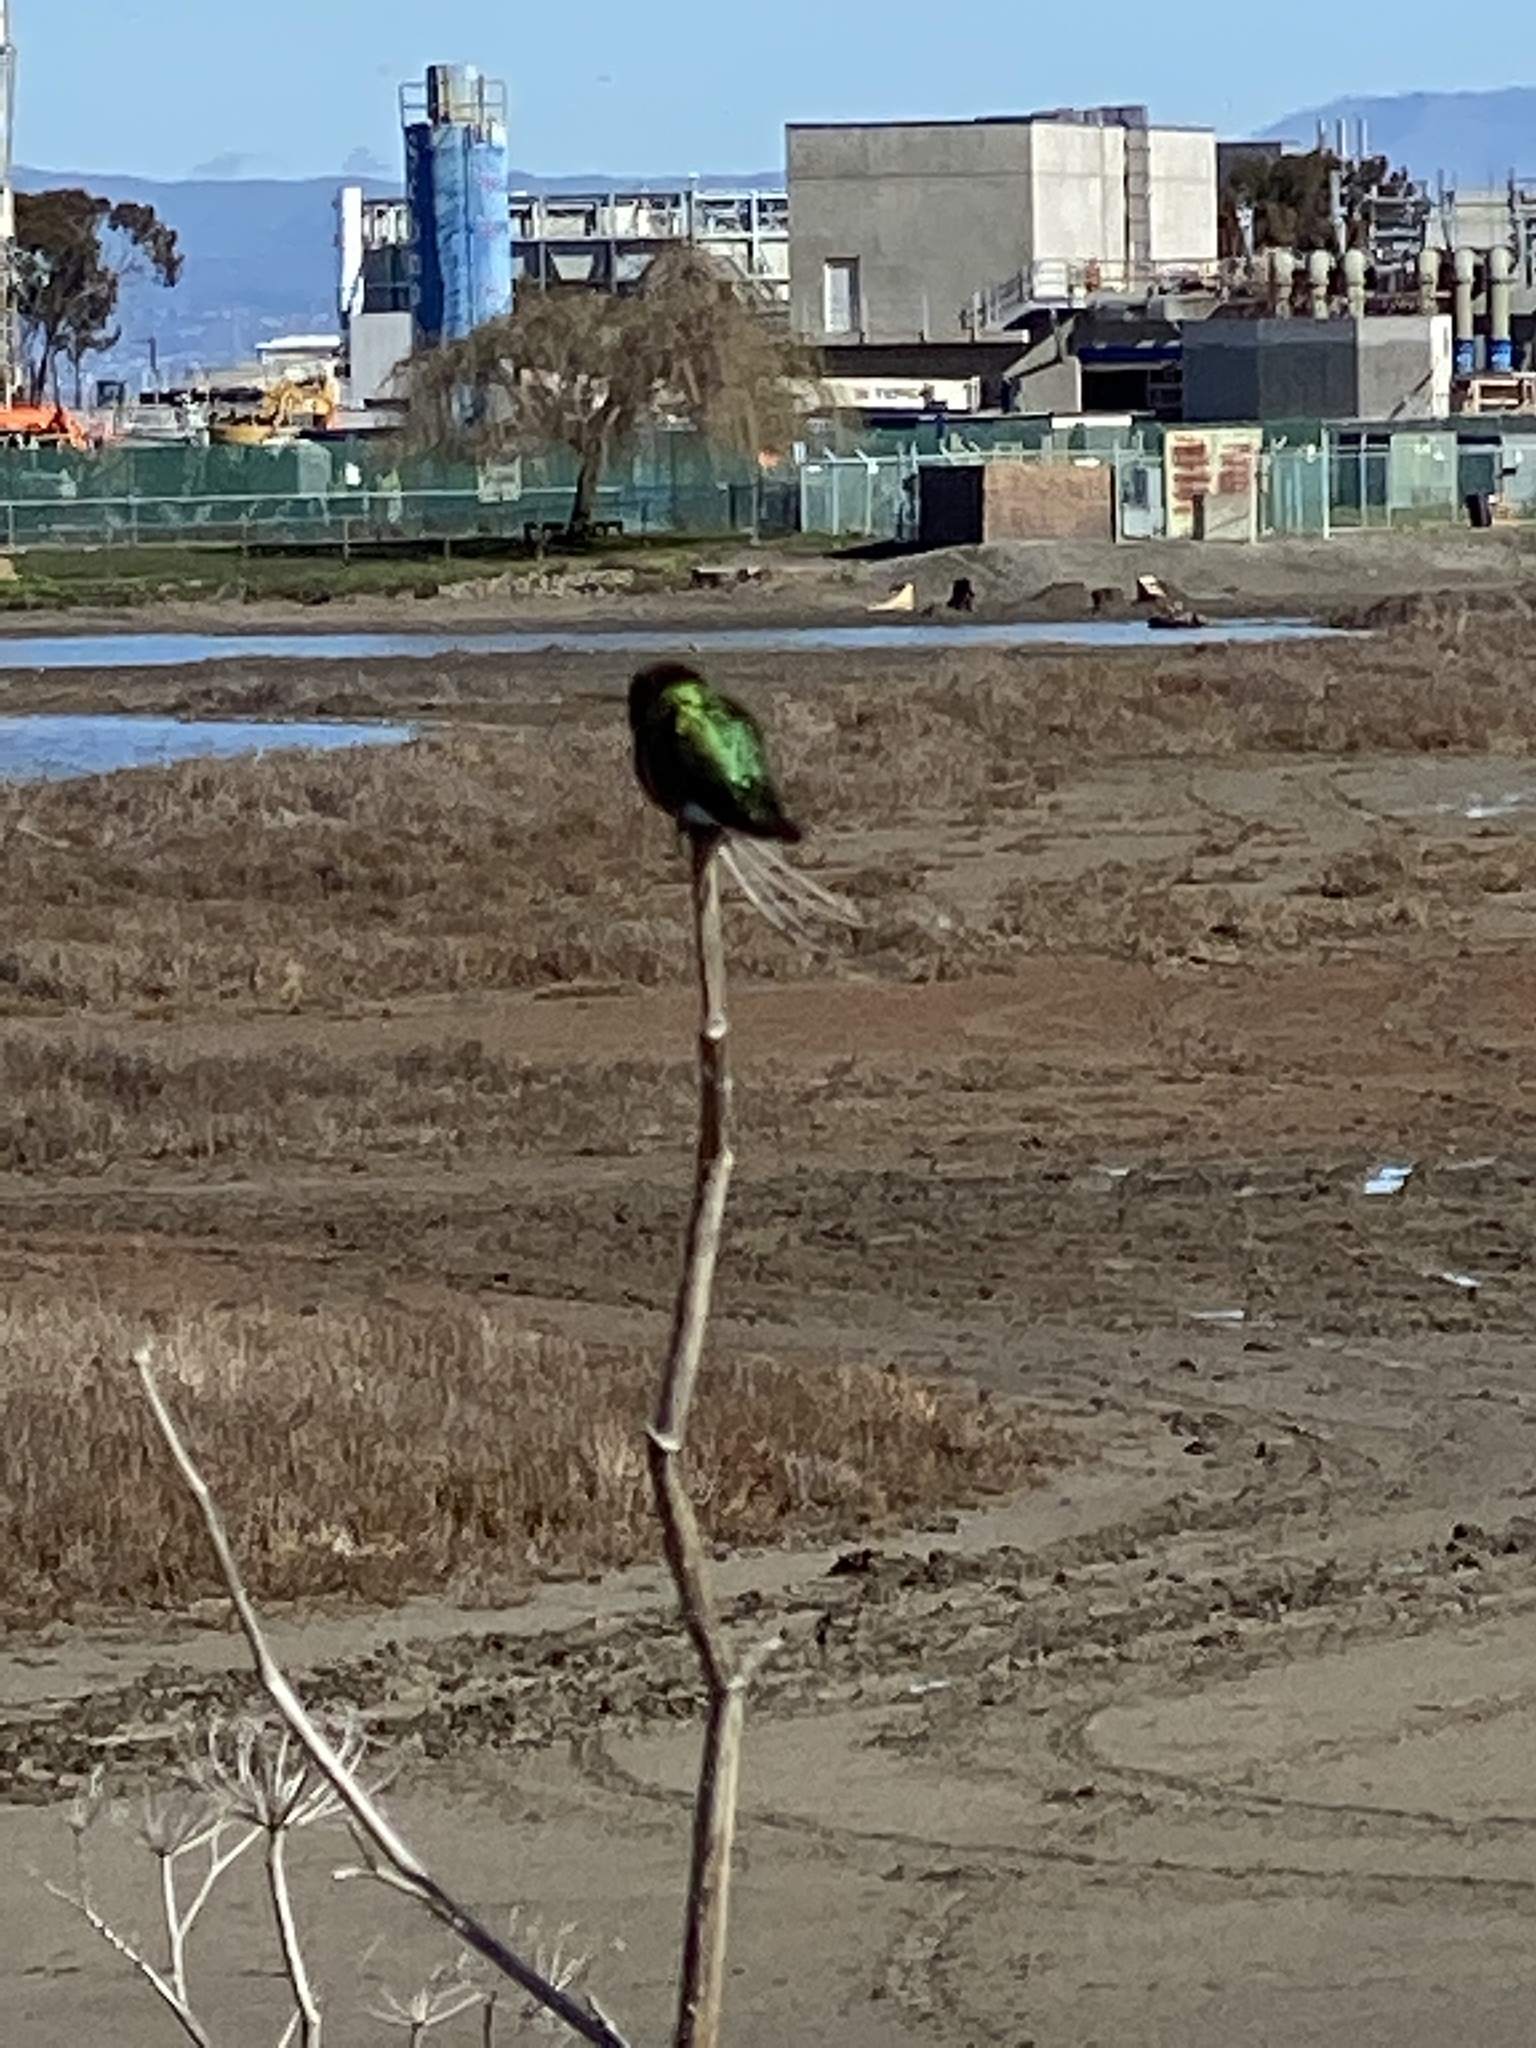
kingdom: Animalia
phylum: Chordata
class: Aves
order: Apodiformes
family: Trochilidae
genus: Calypte
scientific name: Calypte anna
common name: Anna's hummingbird
